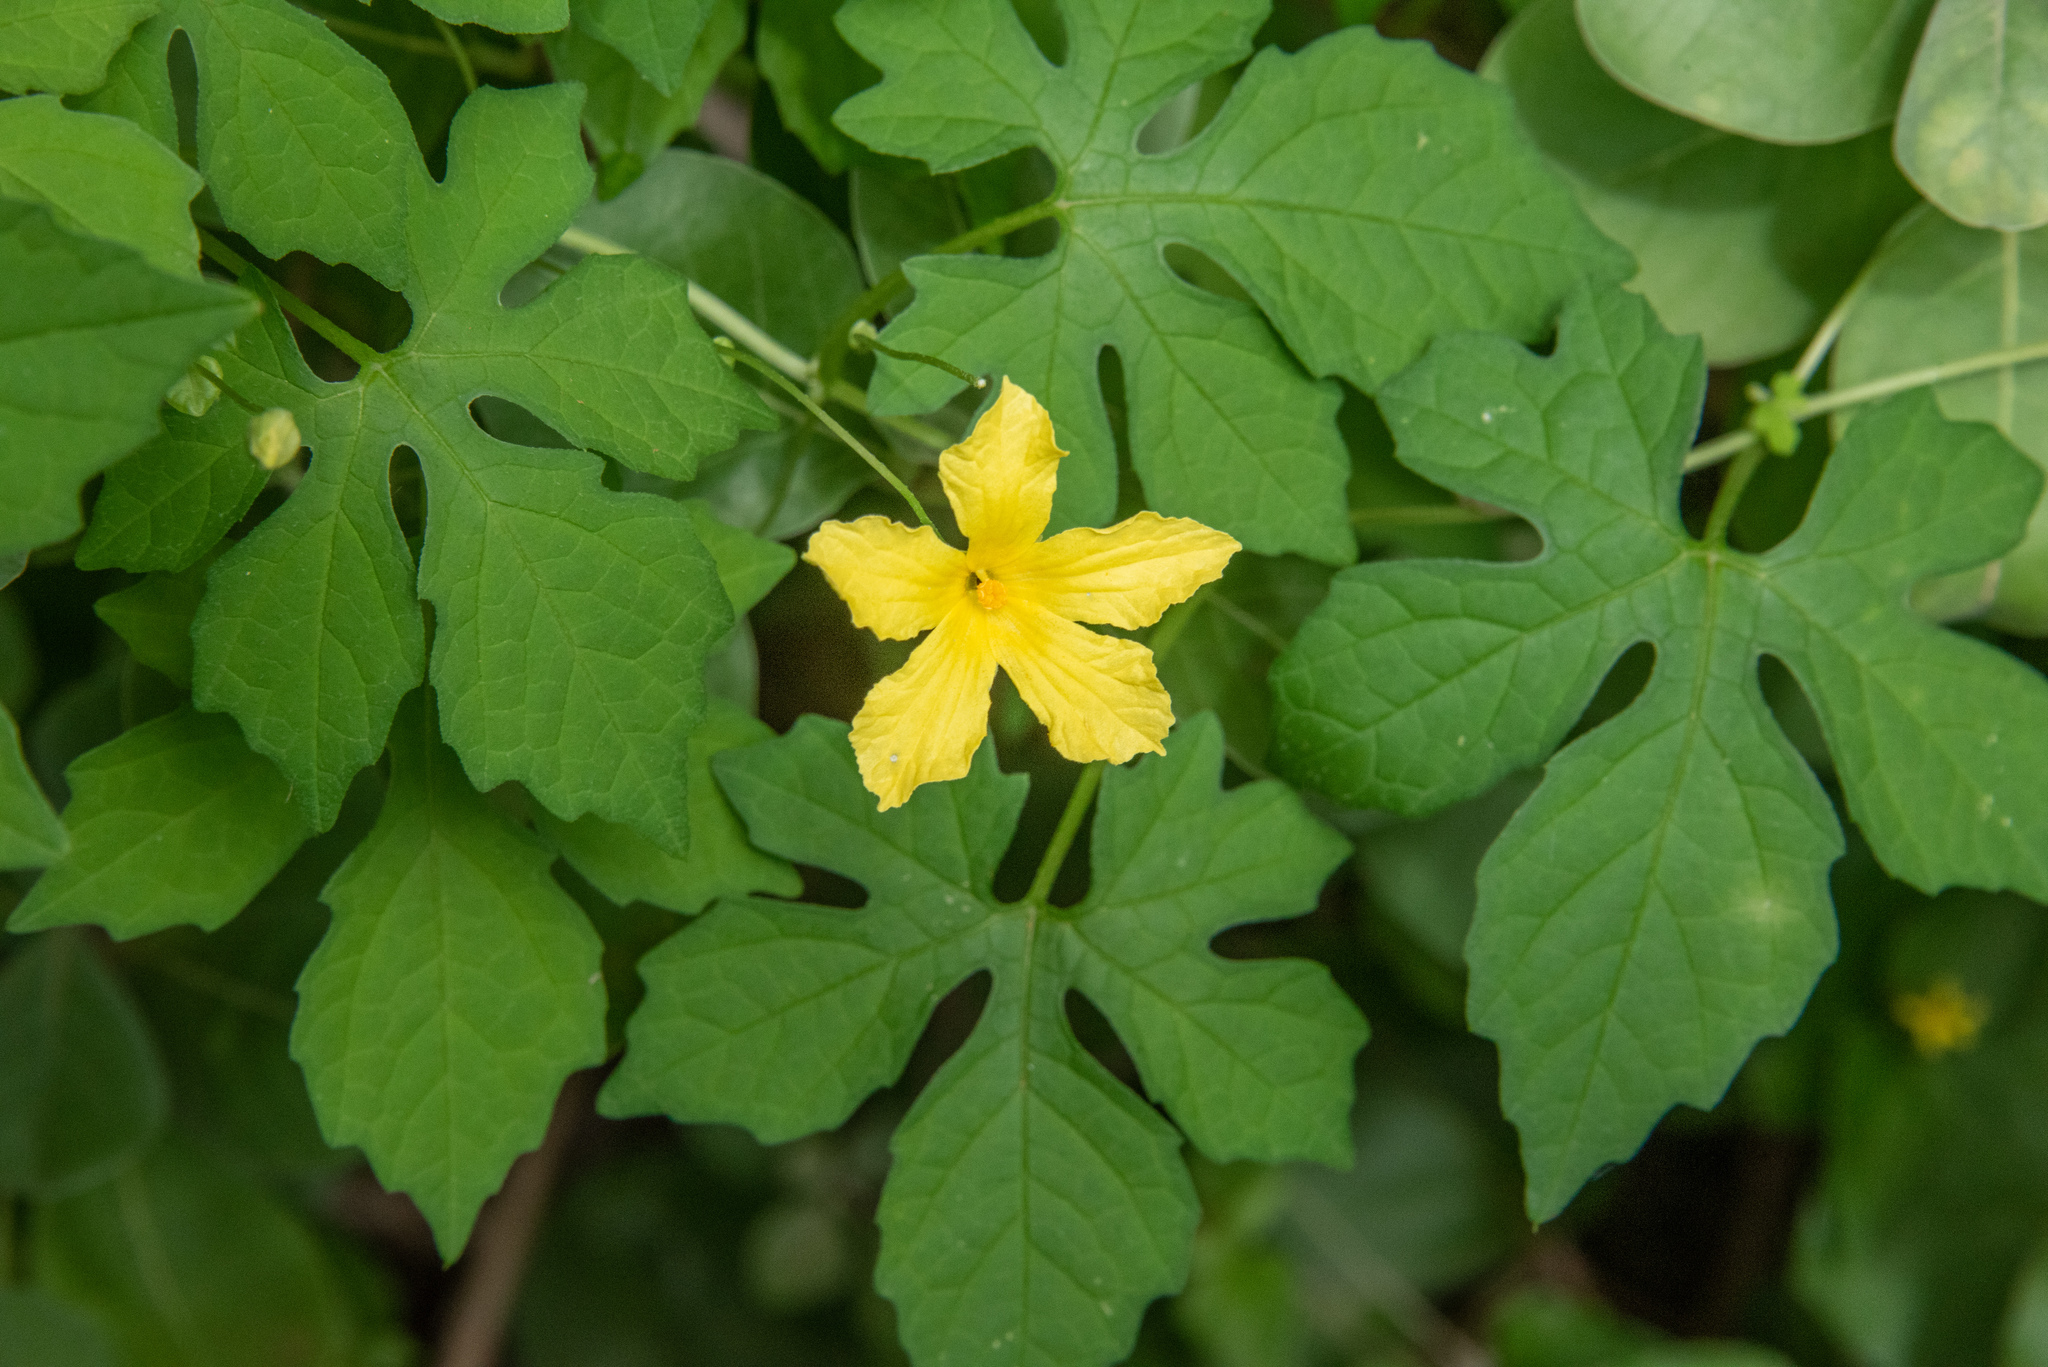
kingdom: Plantae
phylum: Tracheophyta
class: Magnoliopsida
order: Cucurbitales
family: Cucurbitaceae
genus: Momordica
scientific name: Momordica charantia
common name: Balsampear
